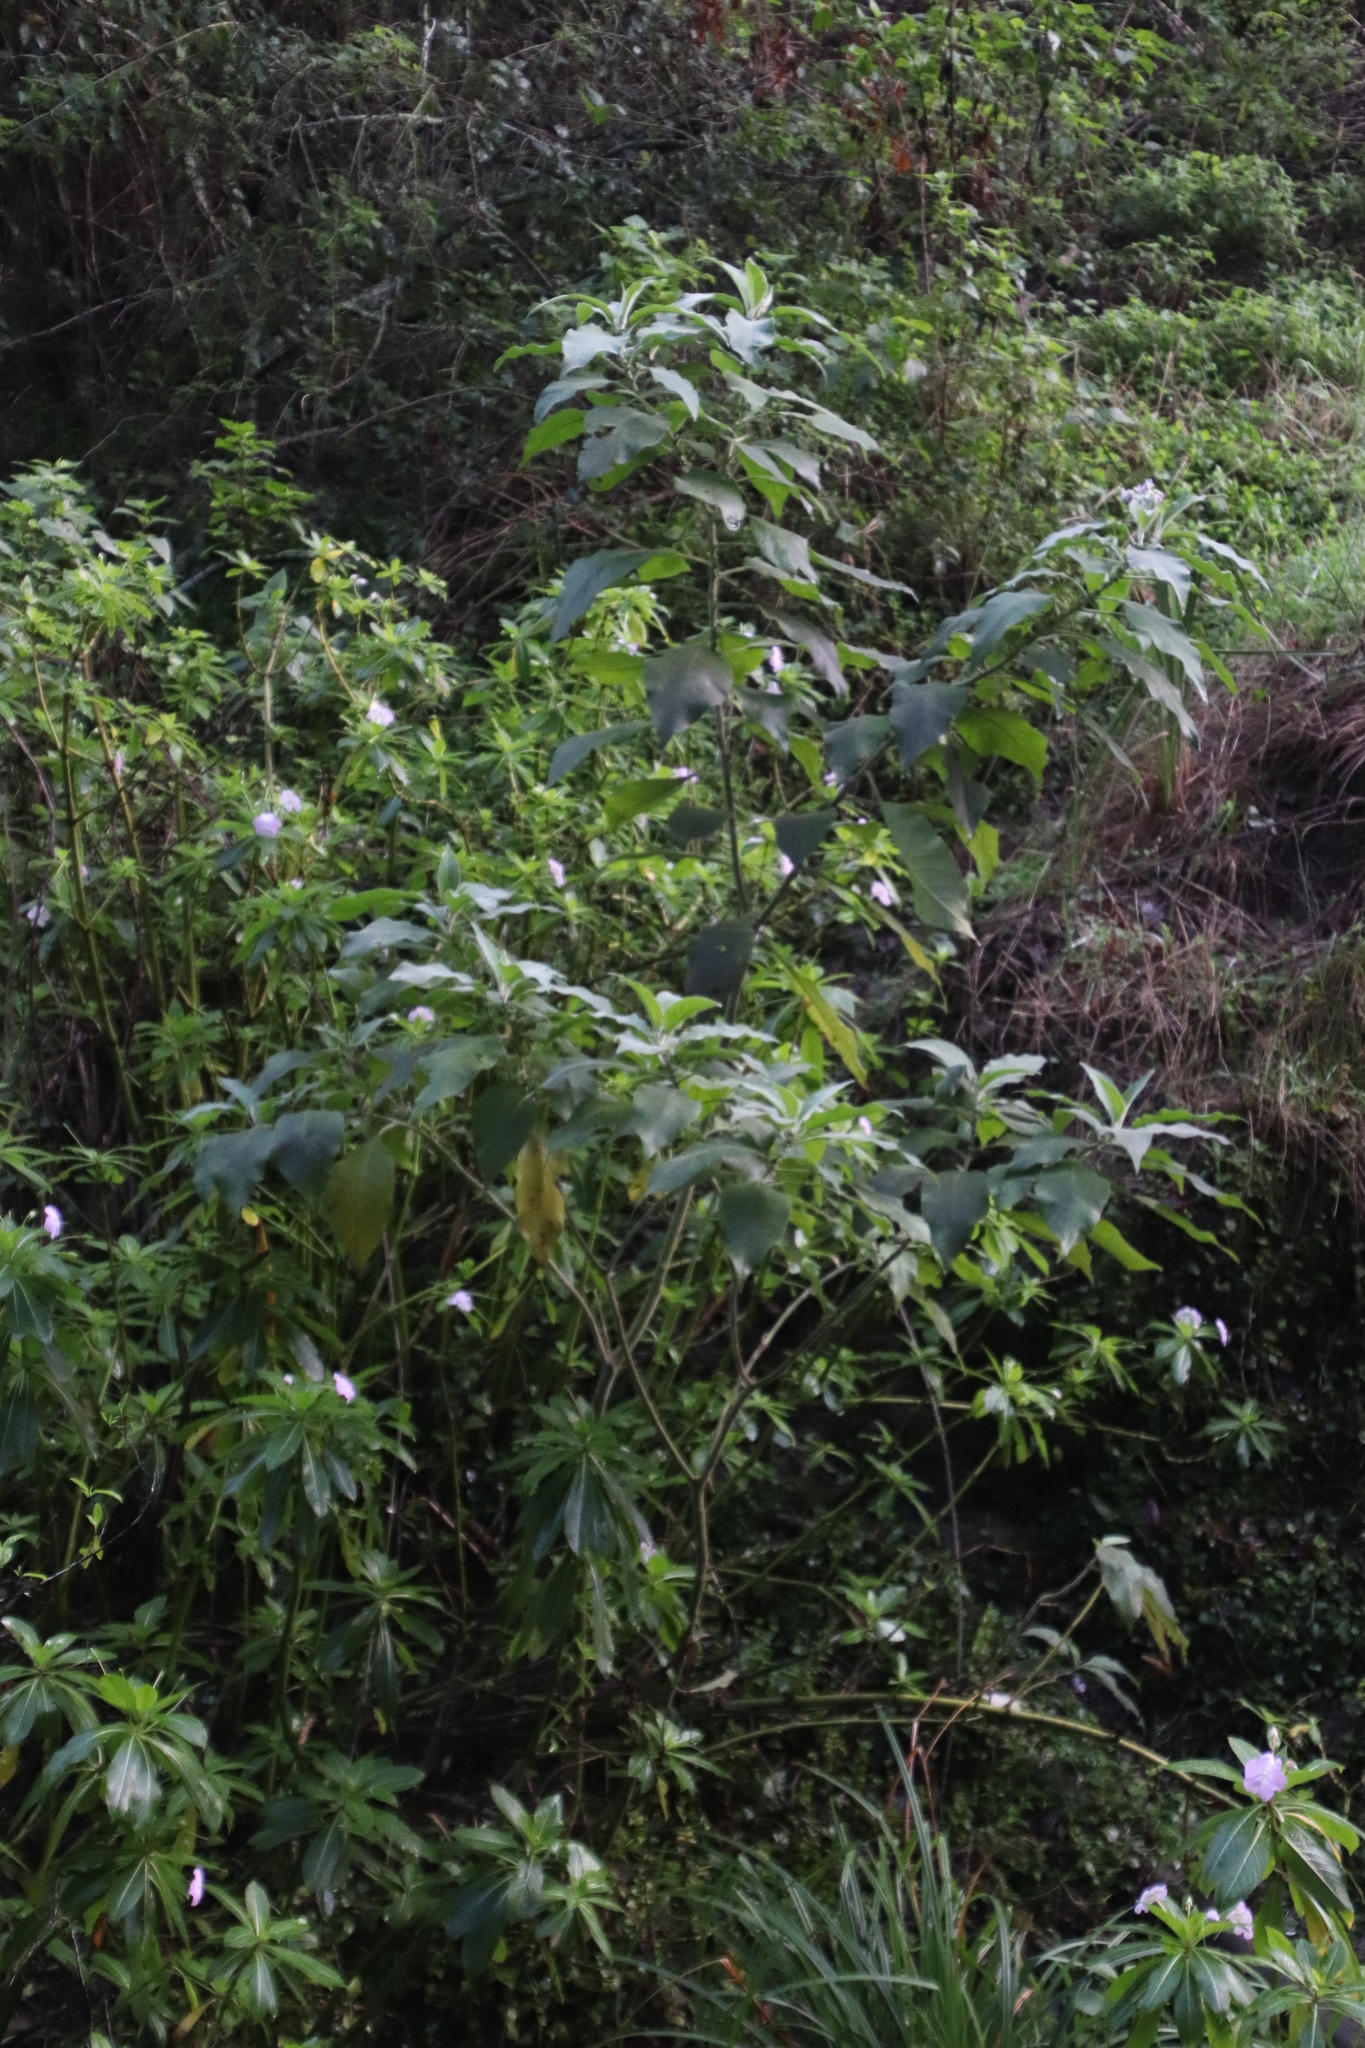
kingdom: Plantae
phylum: Tracheophyta
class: Magnoliopsida
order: Solanales
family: Solanaceae
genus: Solanum
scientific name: Solanum mauritianum
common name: Earleaf nightshade
